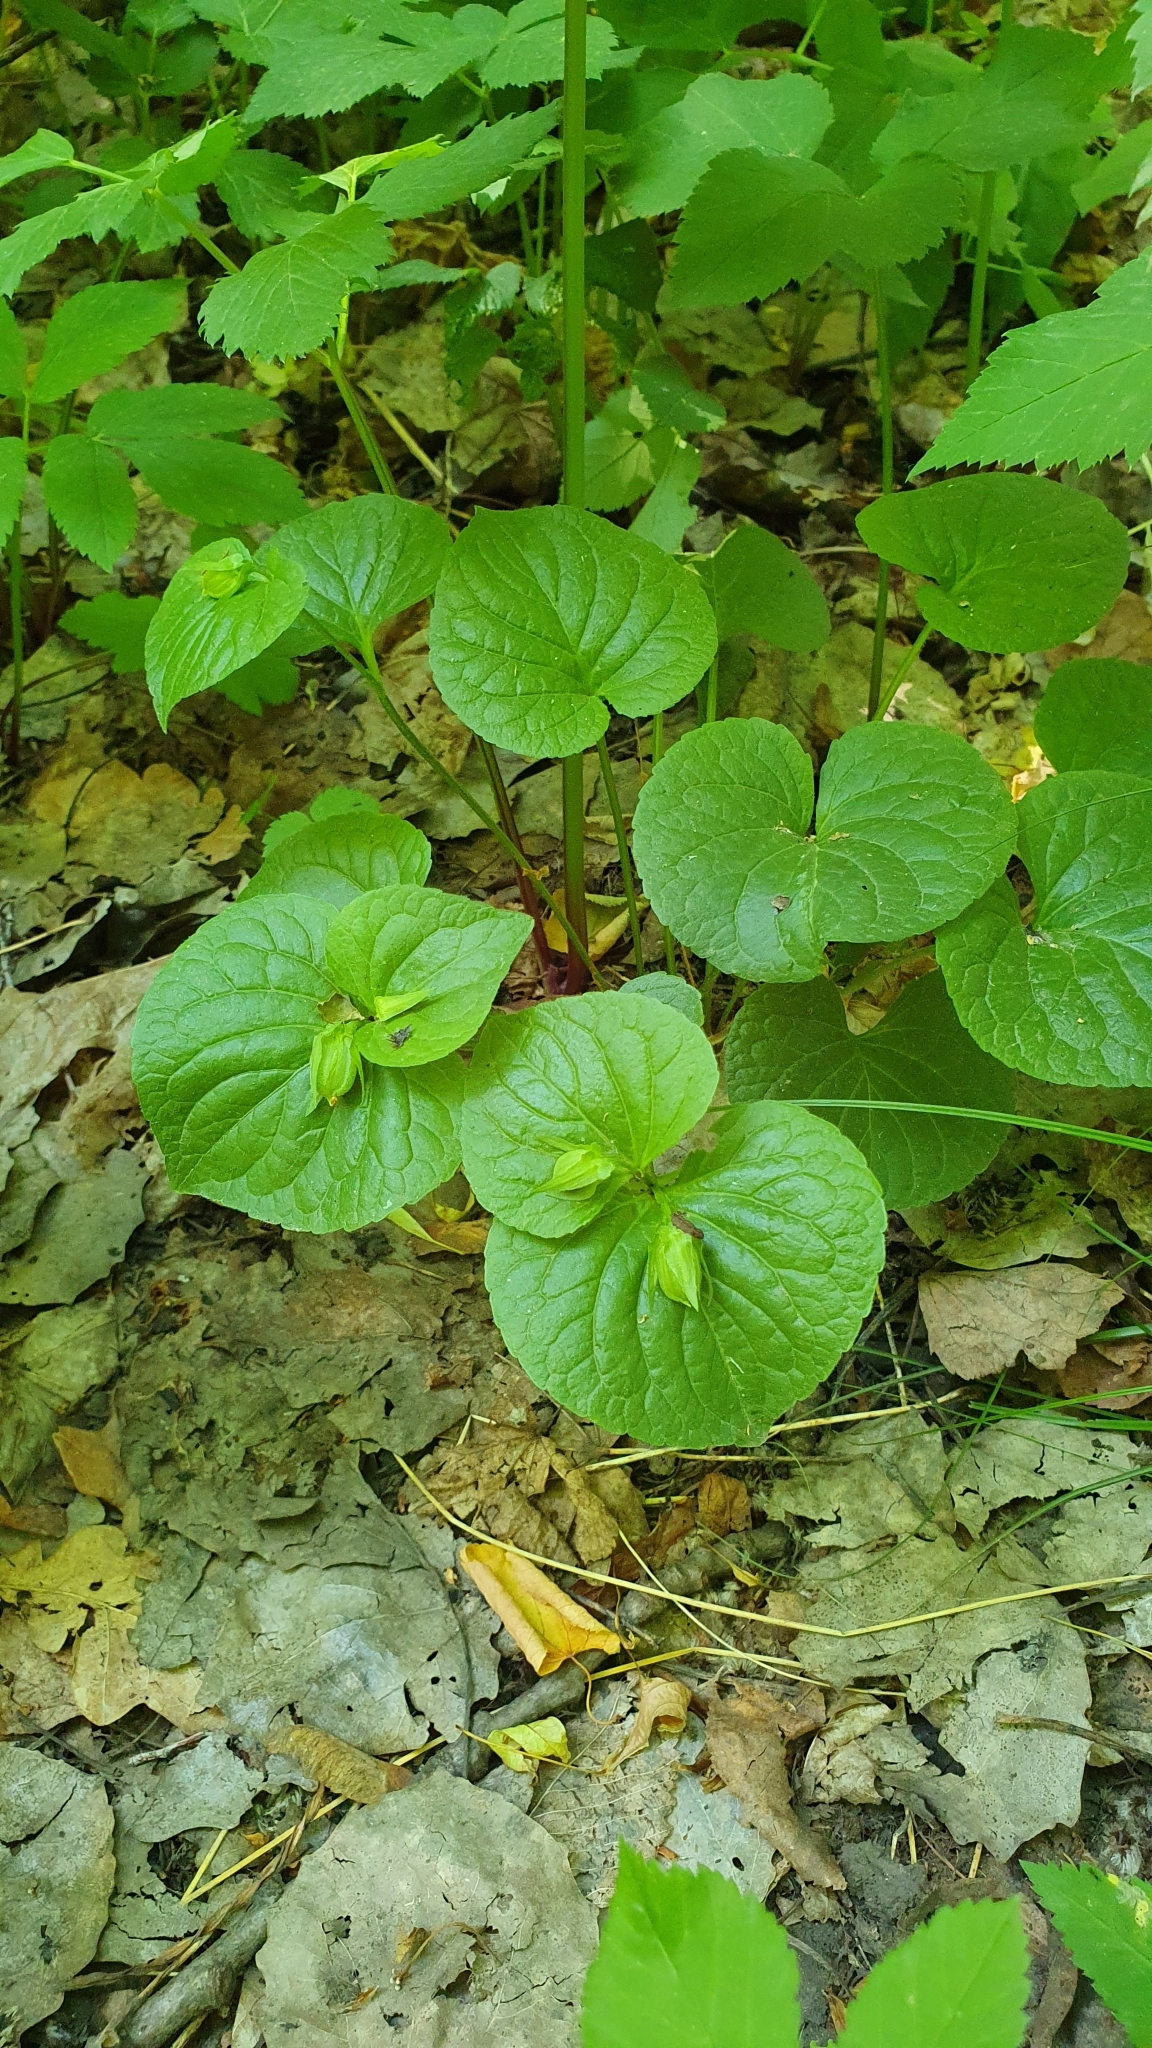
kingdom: Plantae
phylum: Tracheophyta
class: Magnoliopsida
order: Malpighiales
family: Violaceae
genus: Viola
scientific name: Viola mirabilis
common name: Wonder violet
